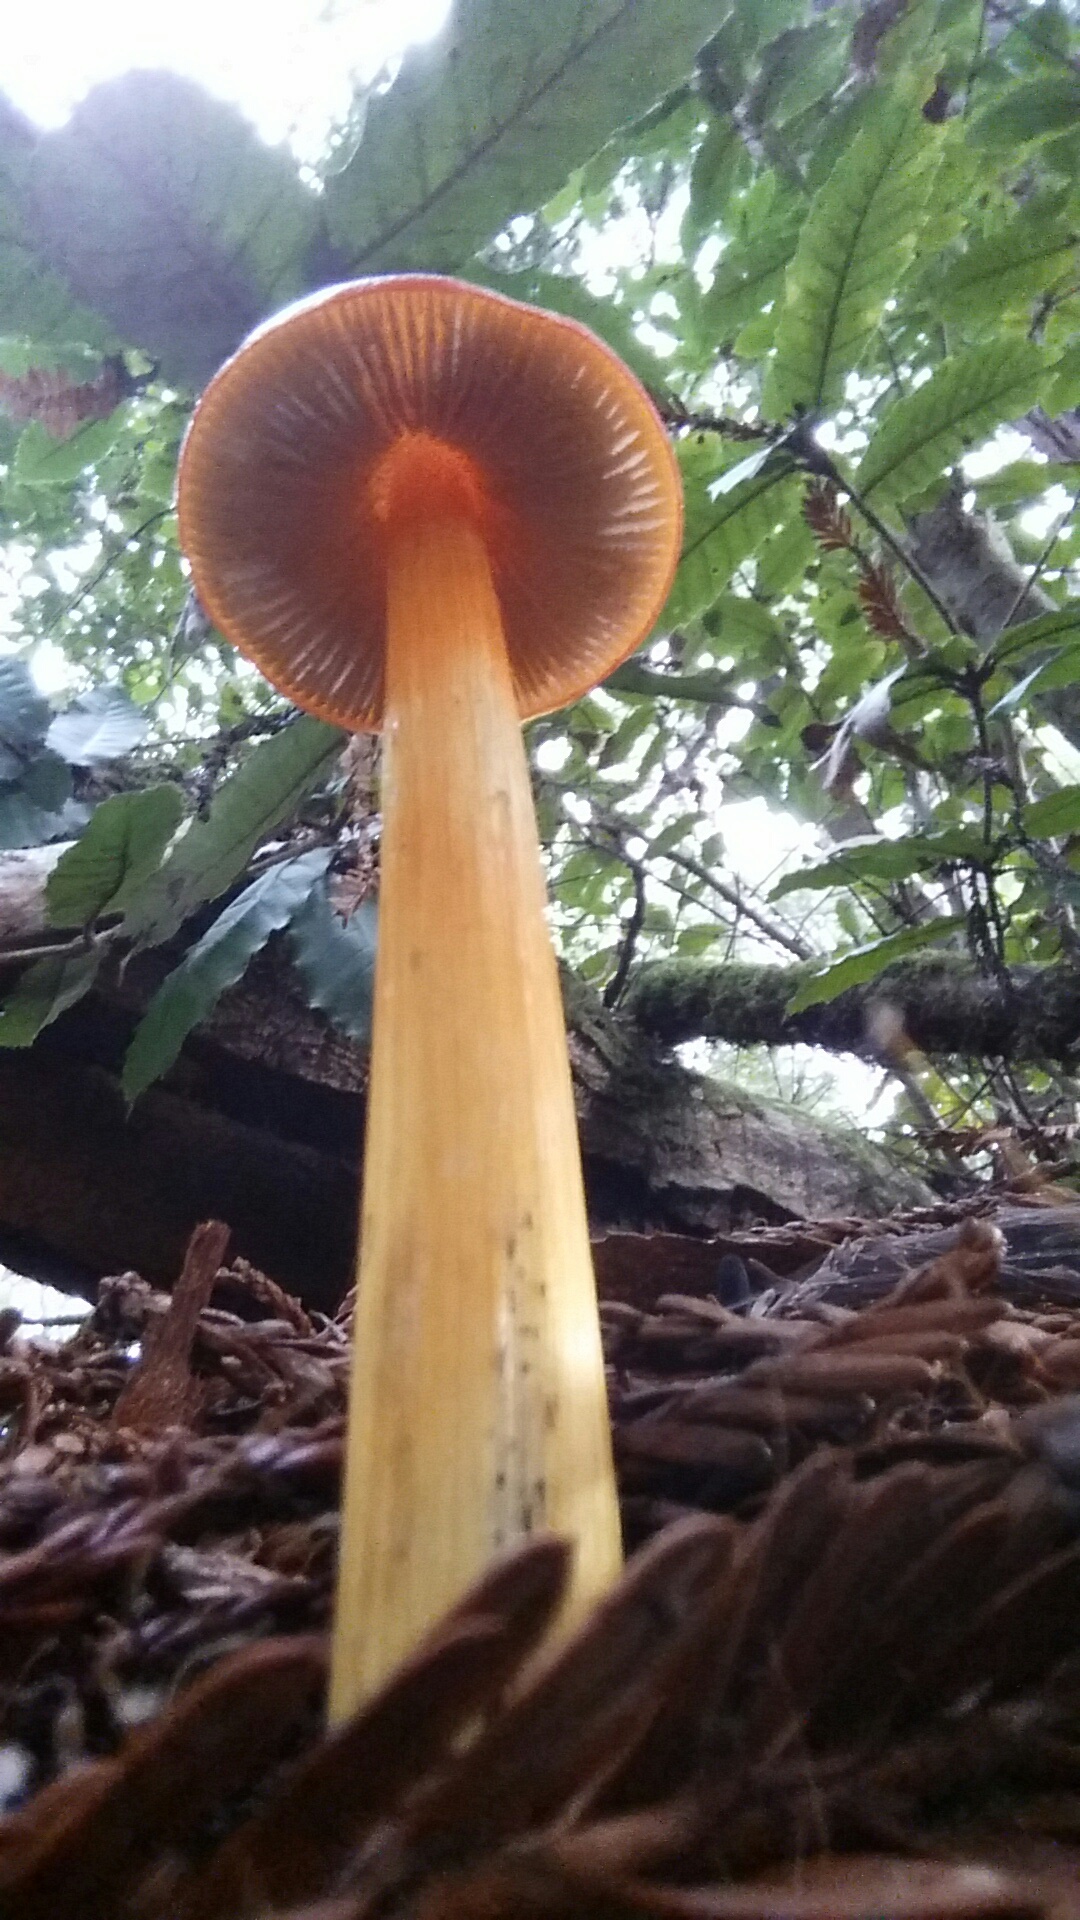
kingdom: Fungi
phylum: Basidiomycota
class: Agaricomycetes
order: Agaricales
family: Hygrophoraceae
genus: Hygrocybe
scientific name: Hygrocybe singeri
